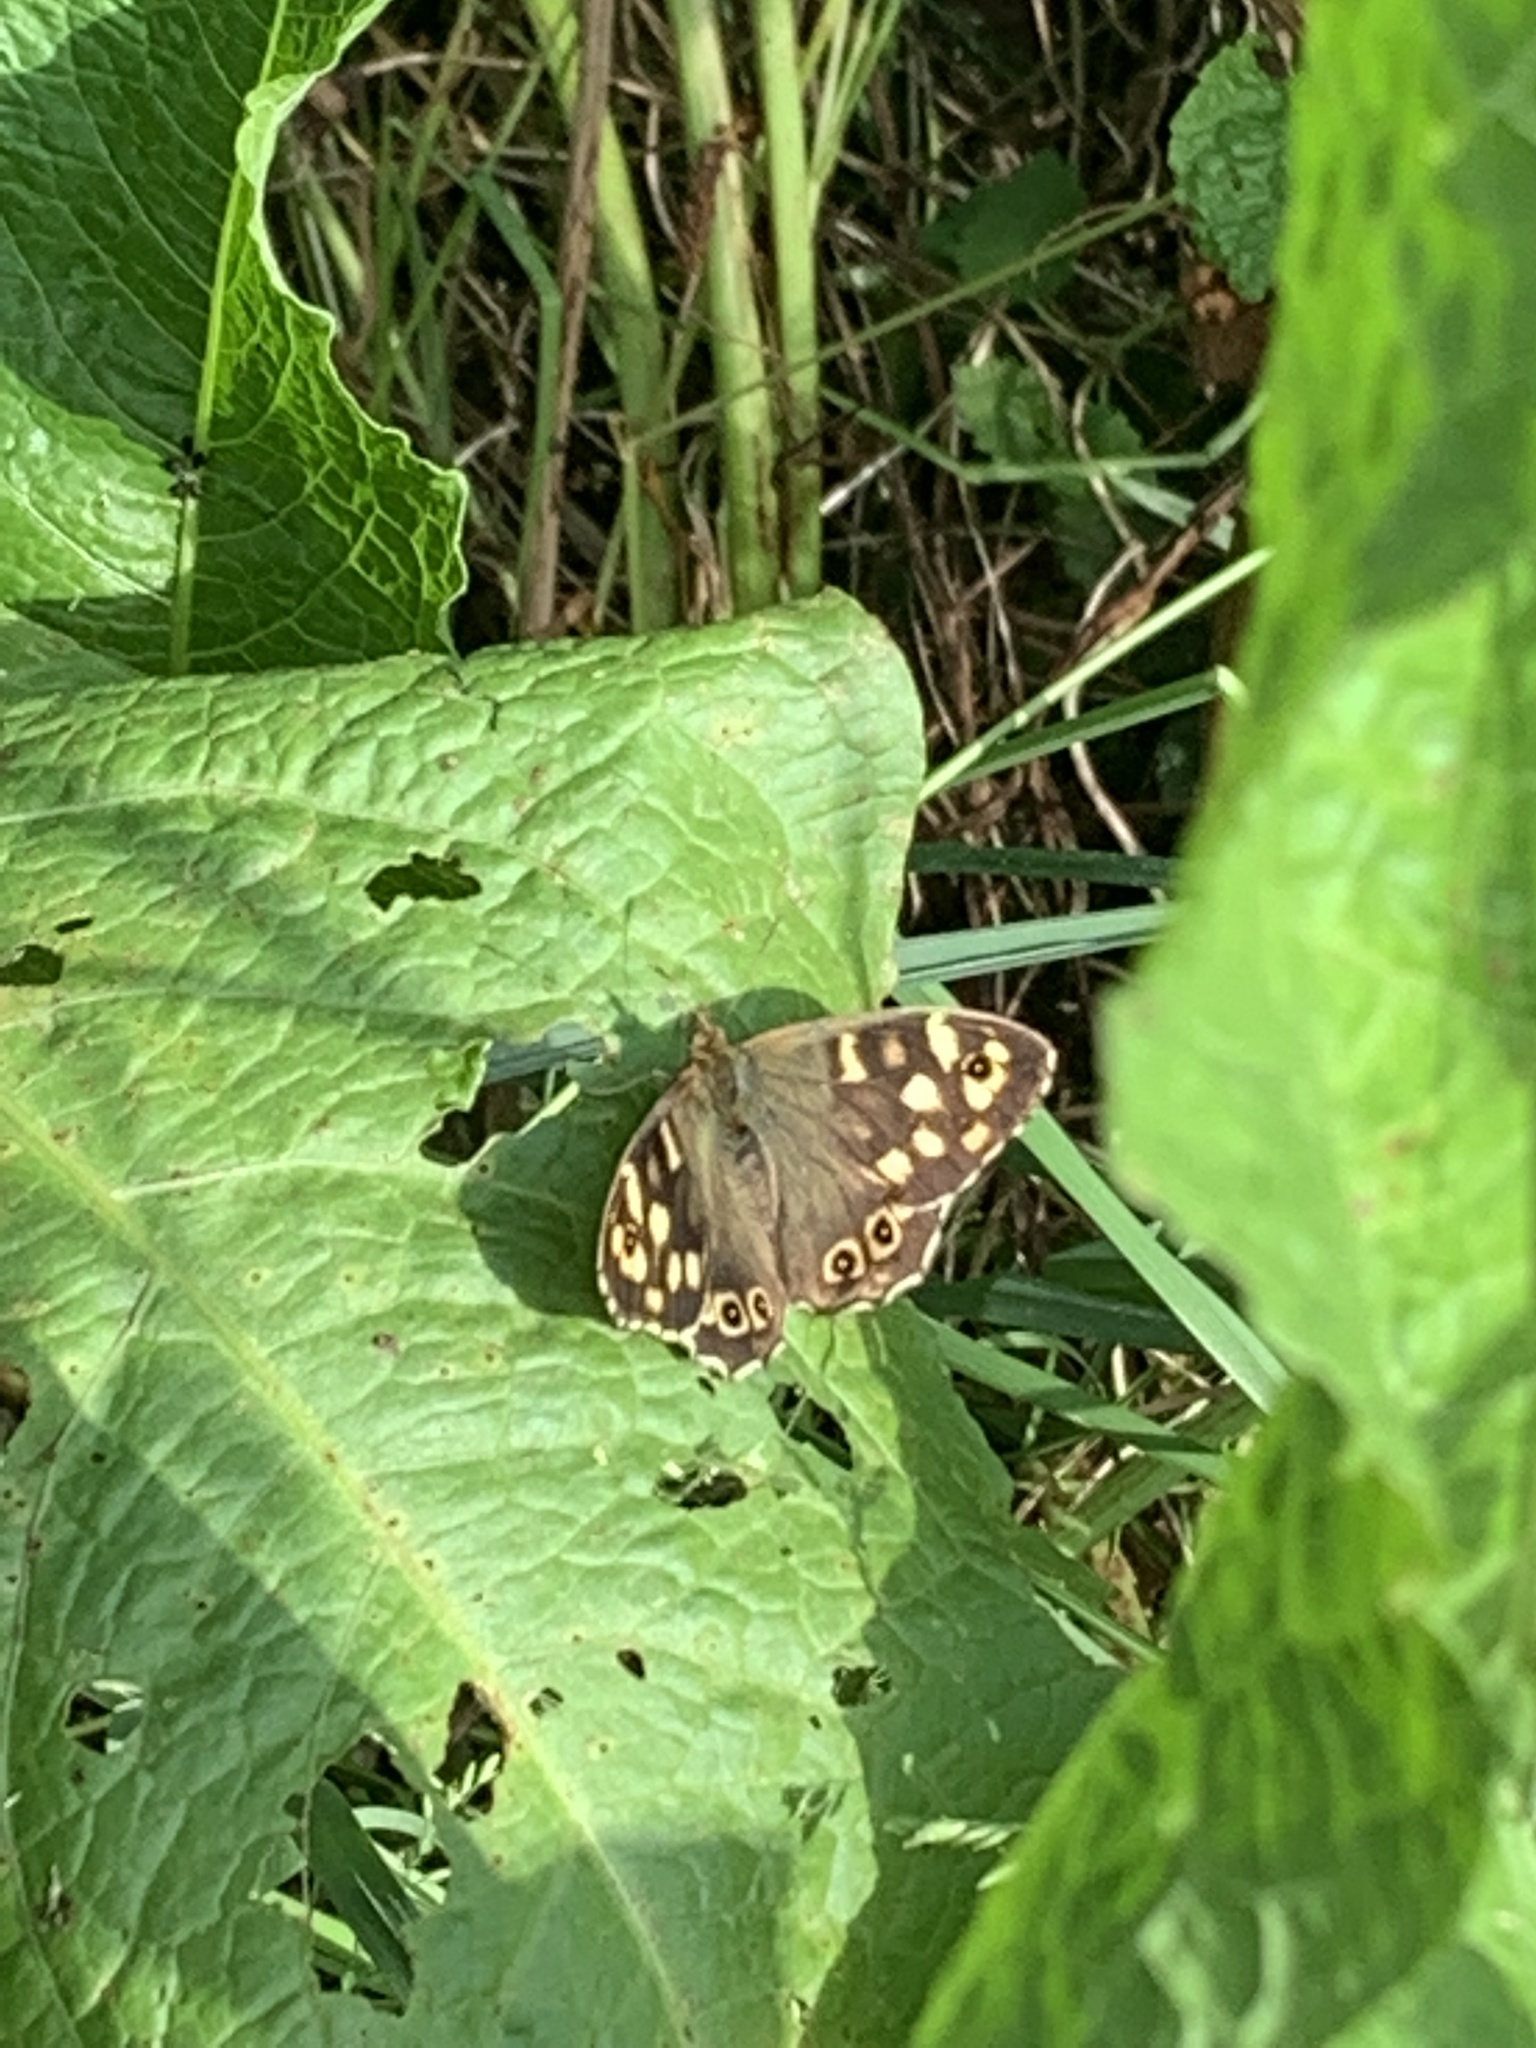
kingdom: Animalia
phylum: Arthropoda
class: Insecta
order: Lepidoptera
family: Nymphalidae
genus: Pararge
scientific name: Pararge aegeria
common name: Speckled wood
